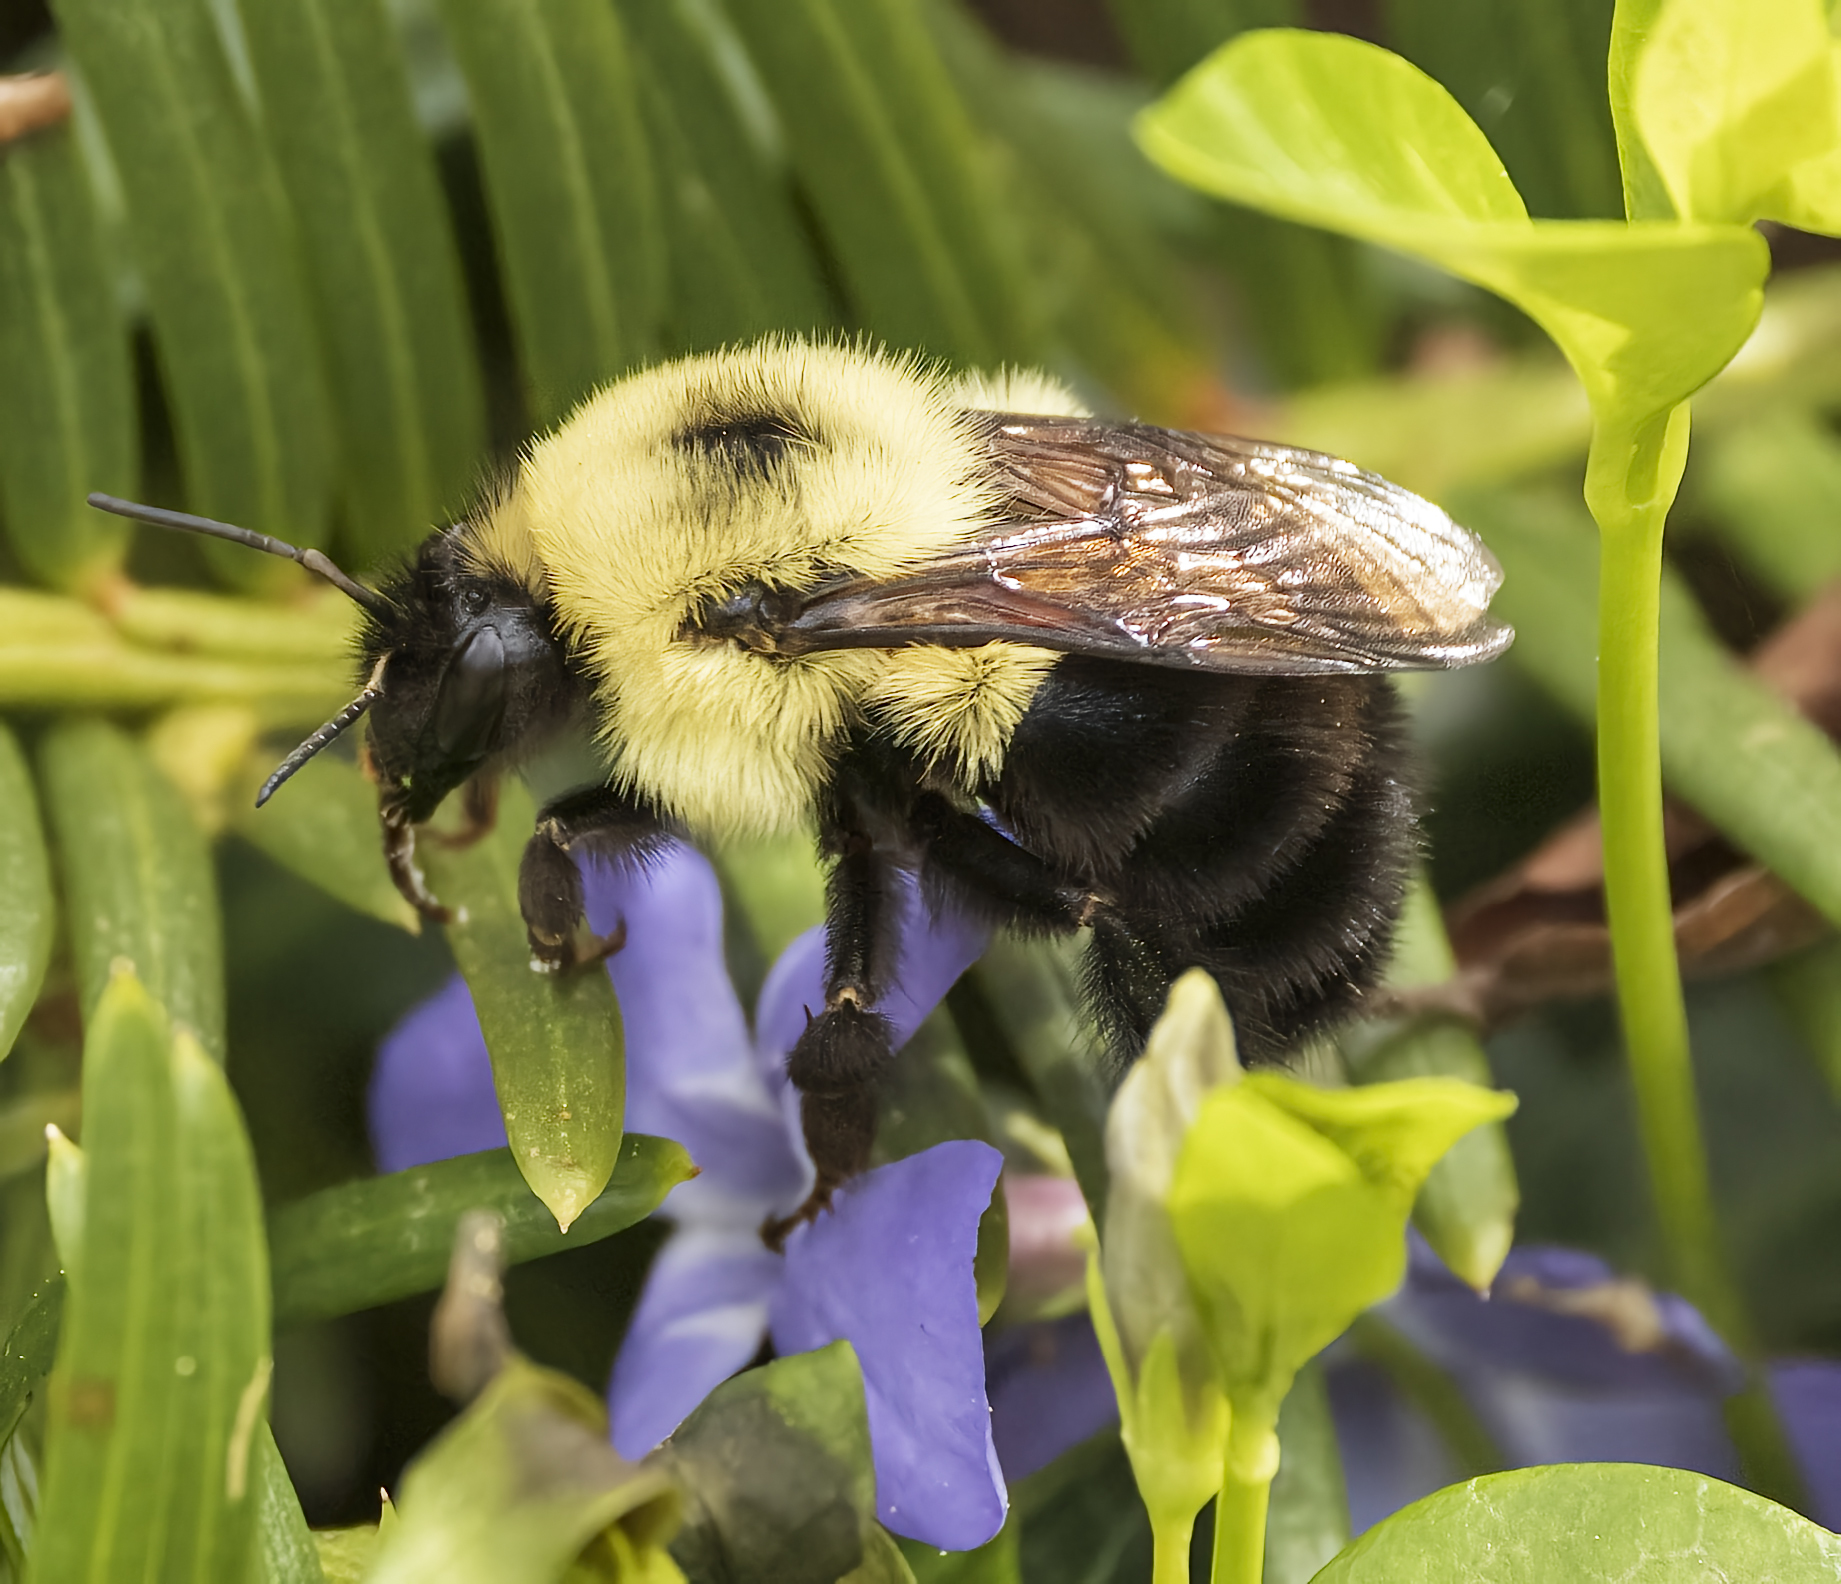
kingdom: Animalia
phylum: Arthropoda
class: Insecta
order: Hymenoptera
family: Apidae
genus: Bombus
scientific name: Bombus bimaculatus
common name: Two-spotted bumble bee
